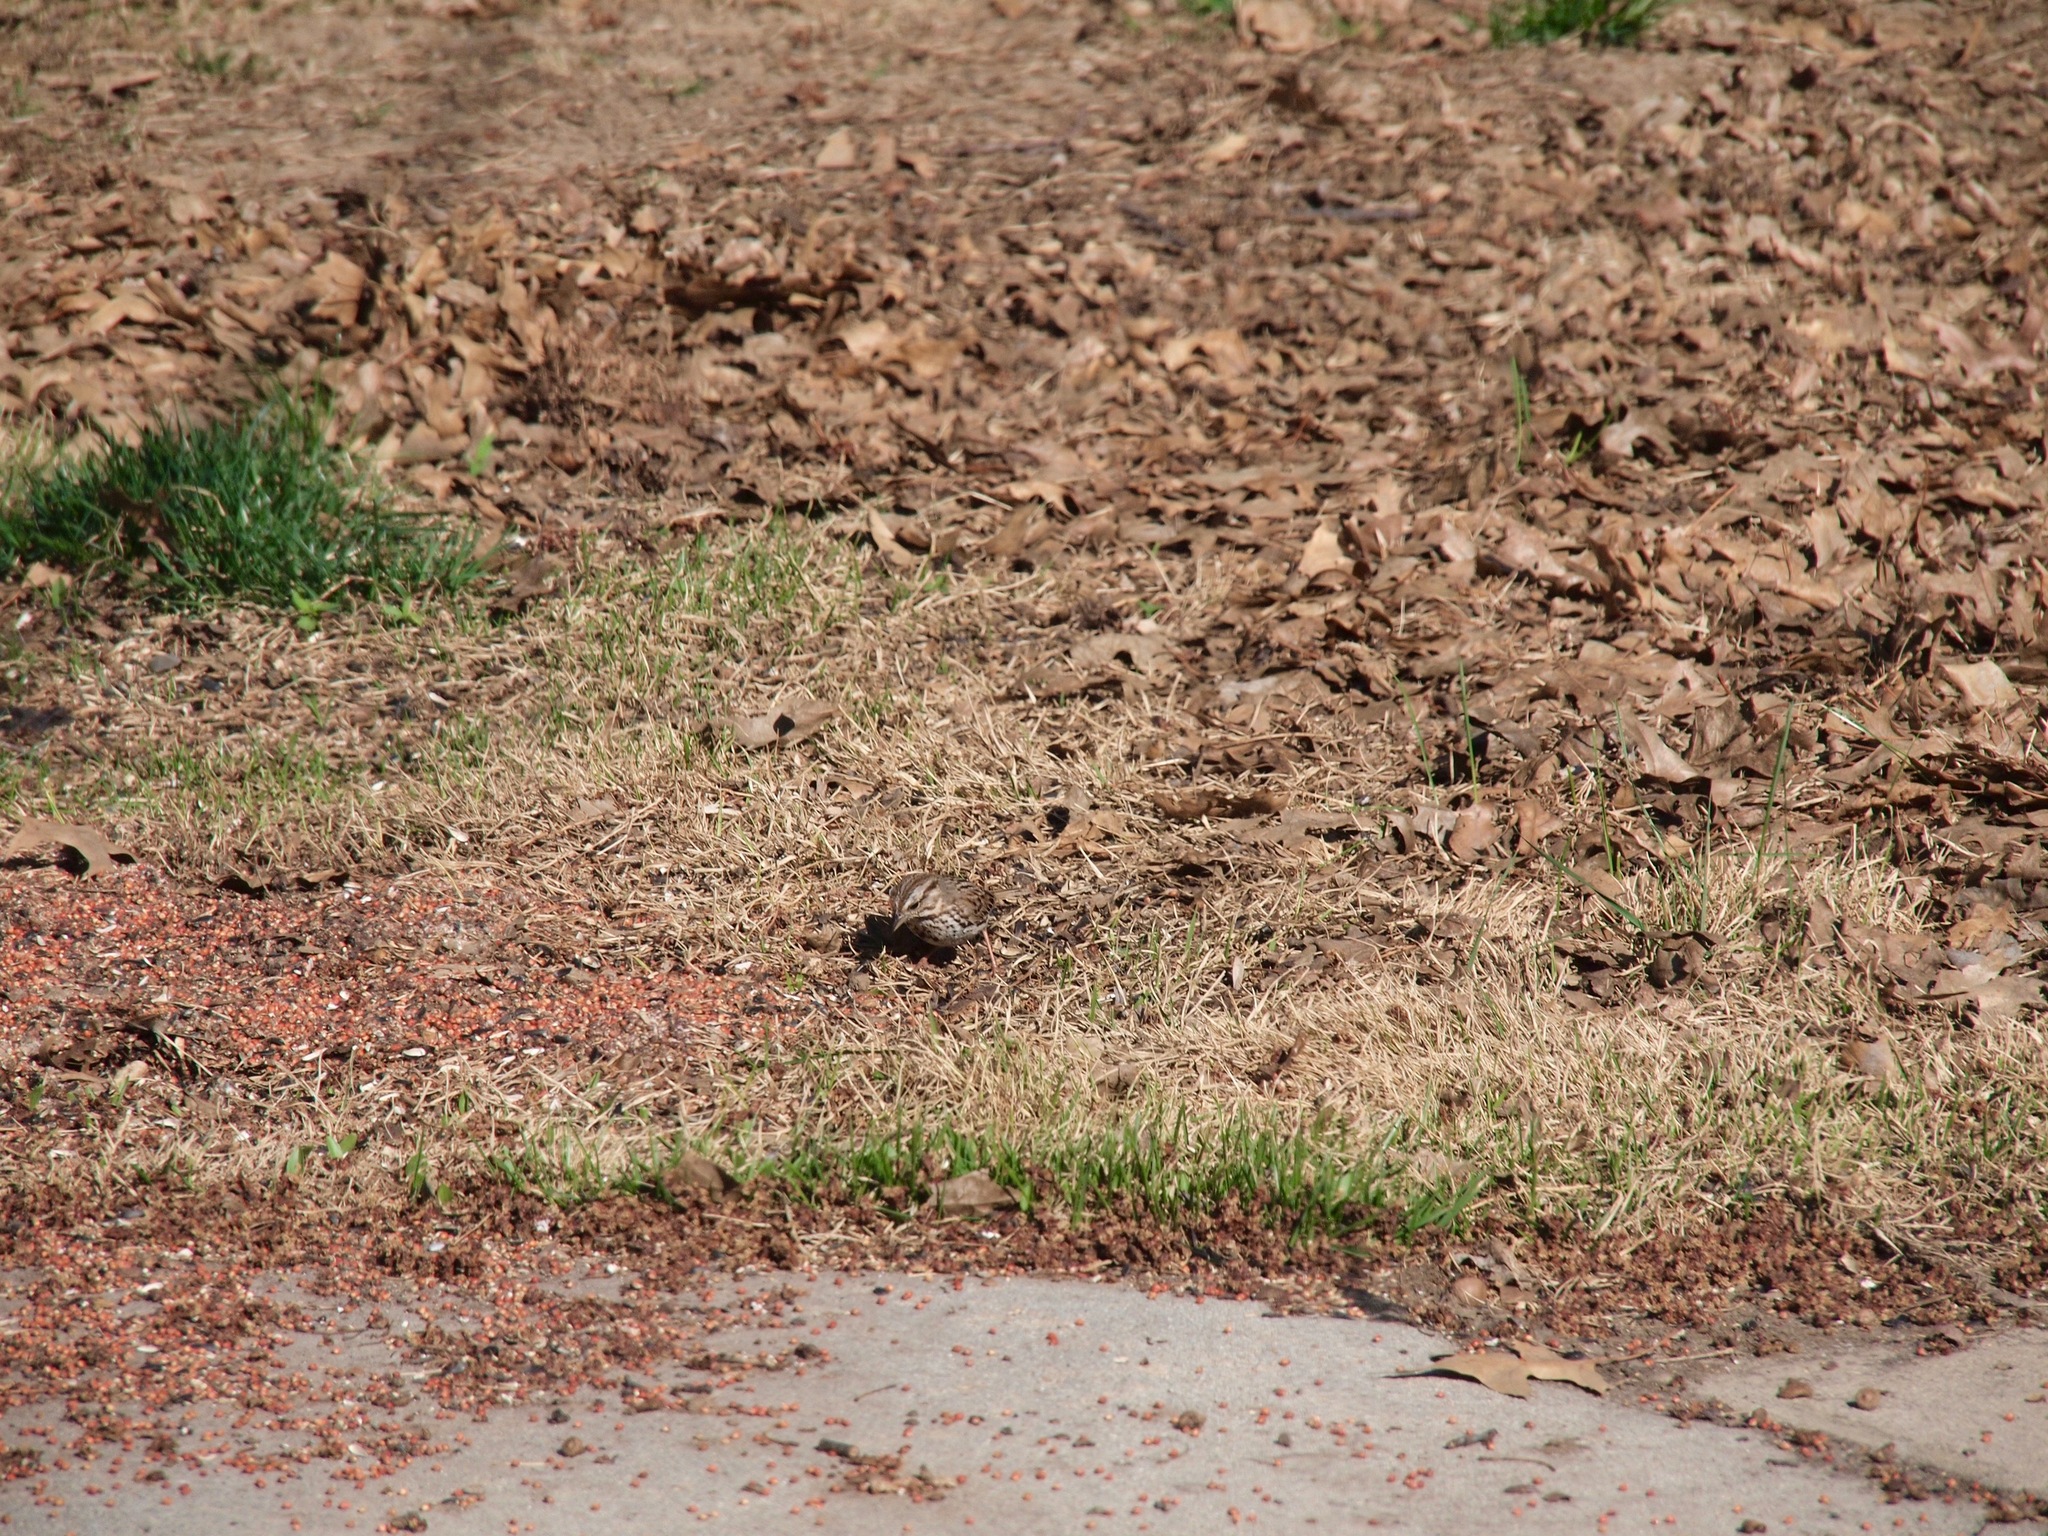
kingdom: Animalia
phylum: Chordata
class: Aves
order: Passeriformes
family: Passerellidae
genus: Melospiza
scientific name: Melospiza melodia
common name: Song sparrow
